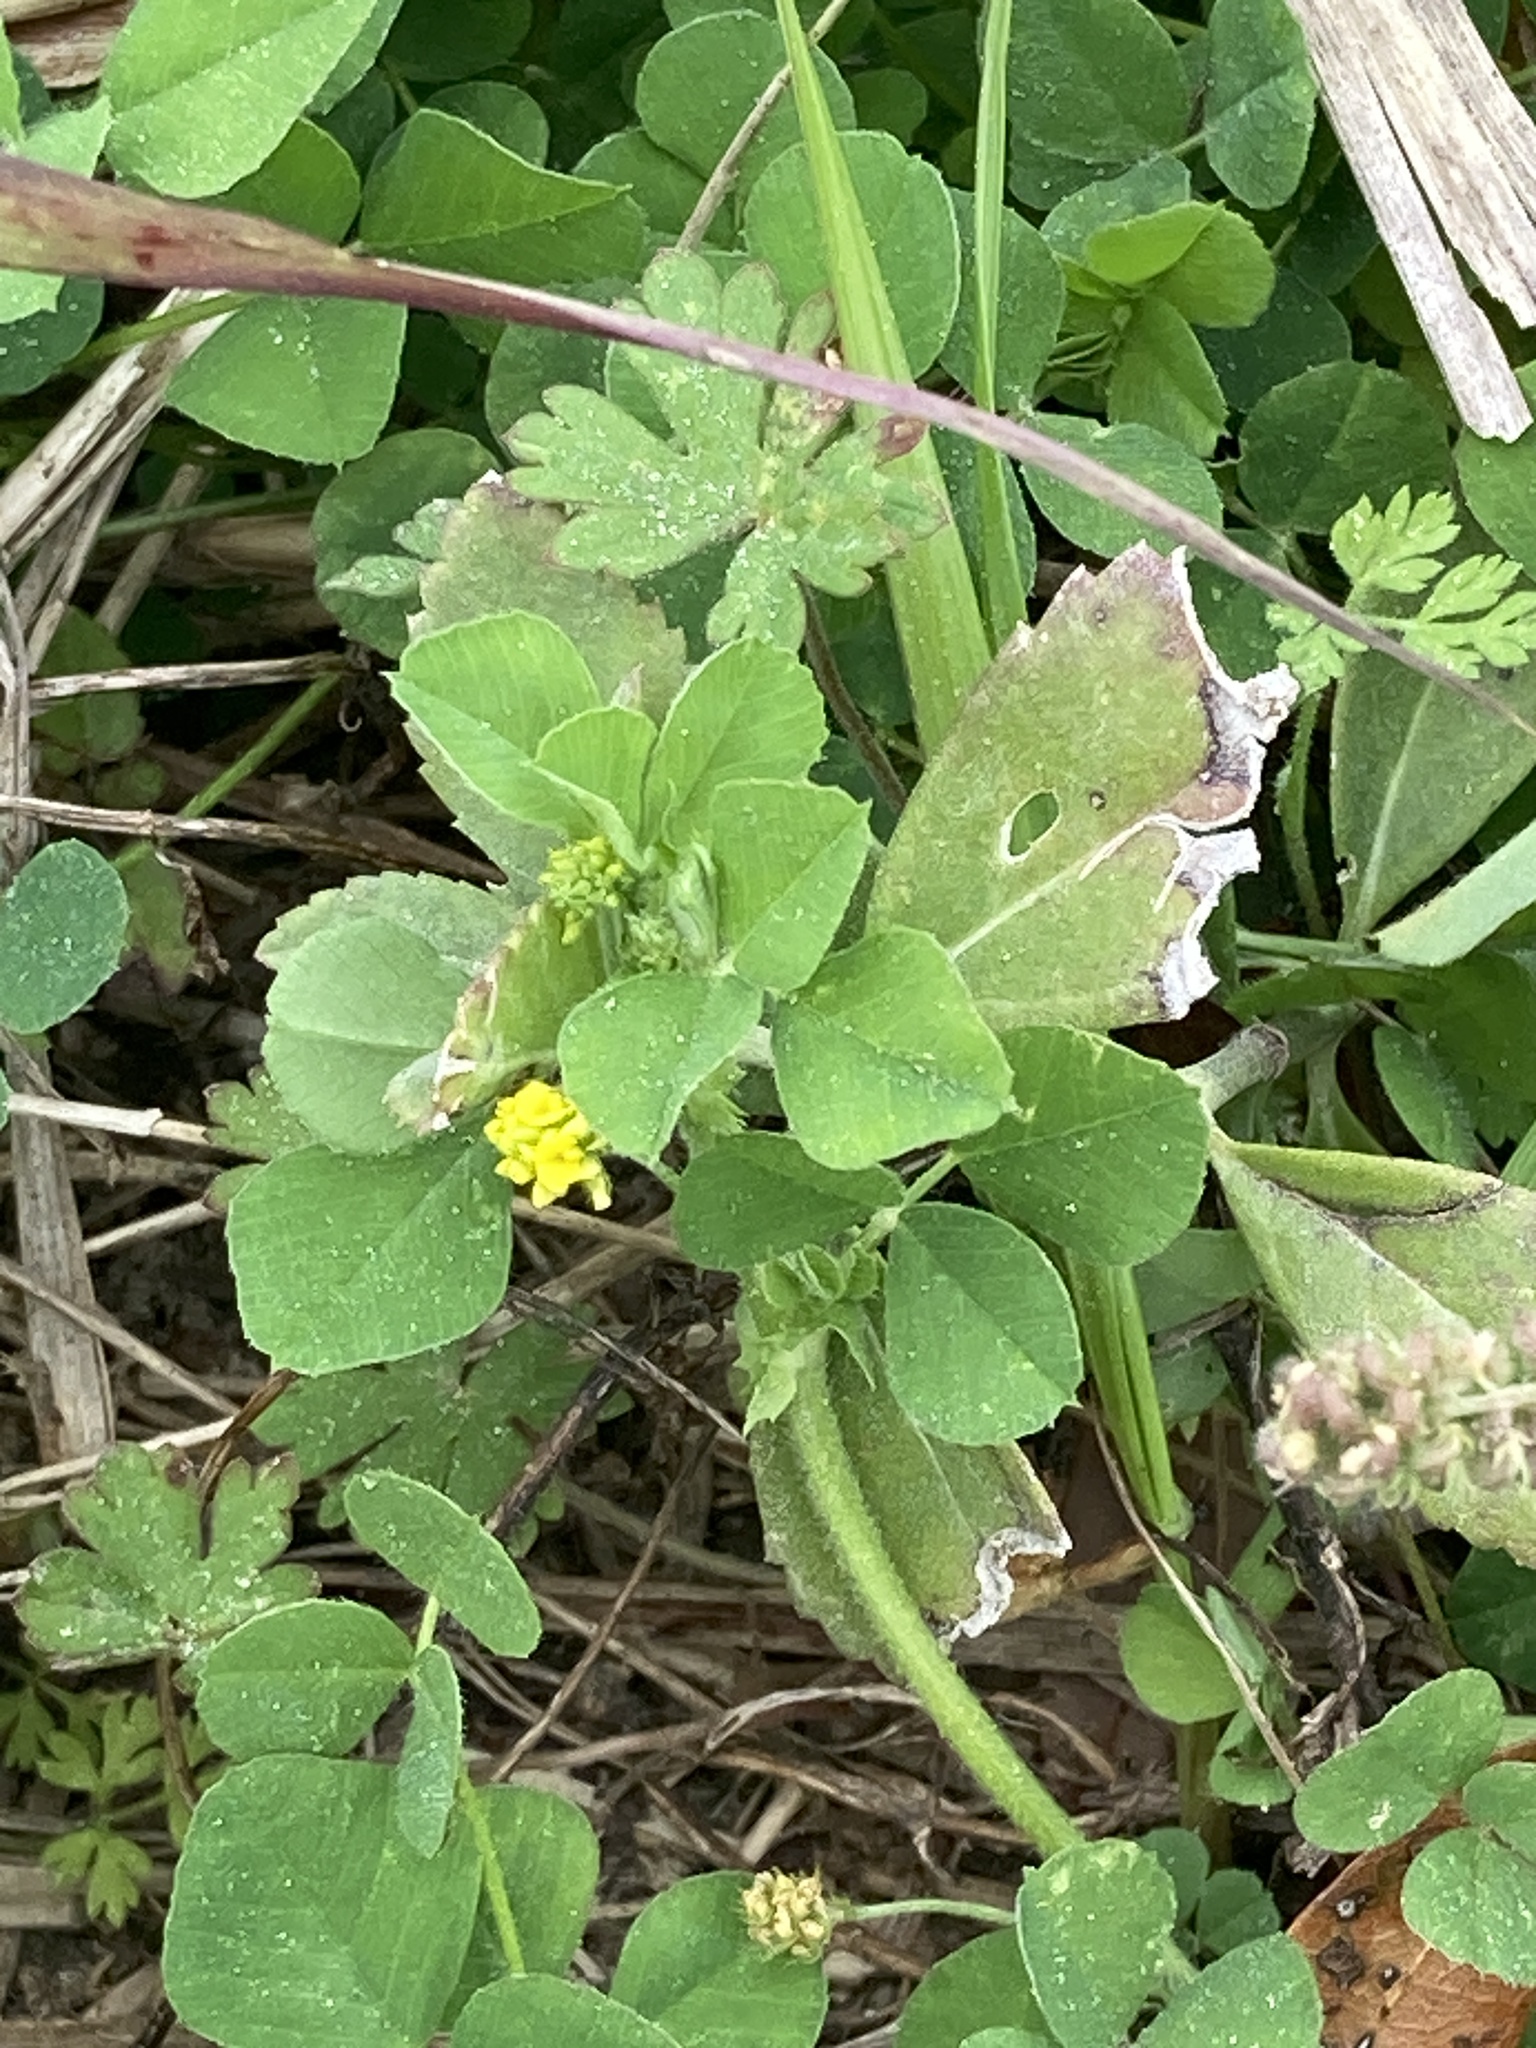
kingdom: Plantae
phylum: Tracheophyta
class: Magnoliopsida
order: Fabales
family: Fabaceae
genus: Medicago
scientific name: Medicago lupulina
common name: Black medick
